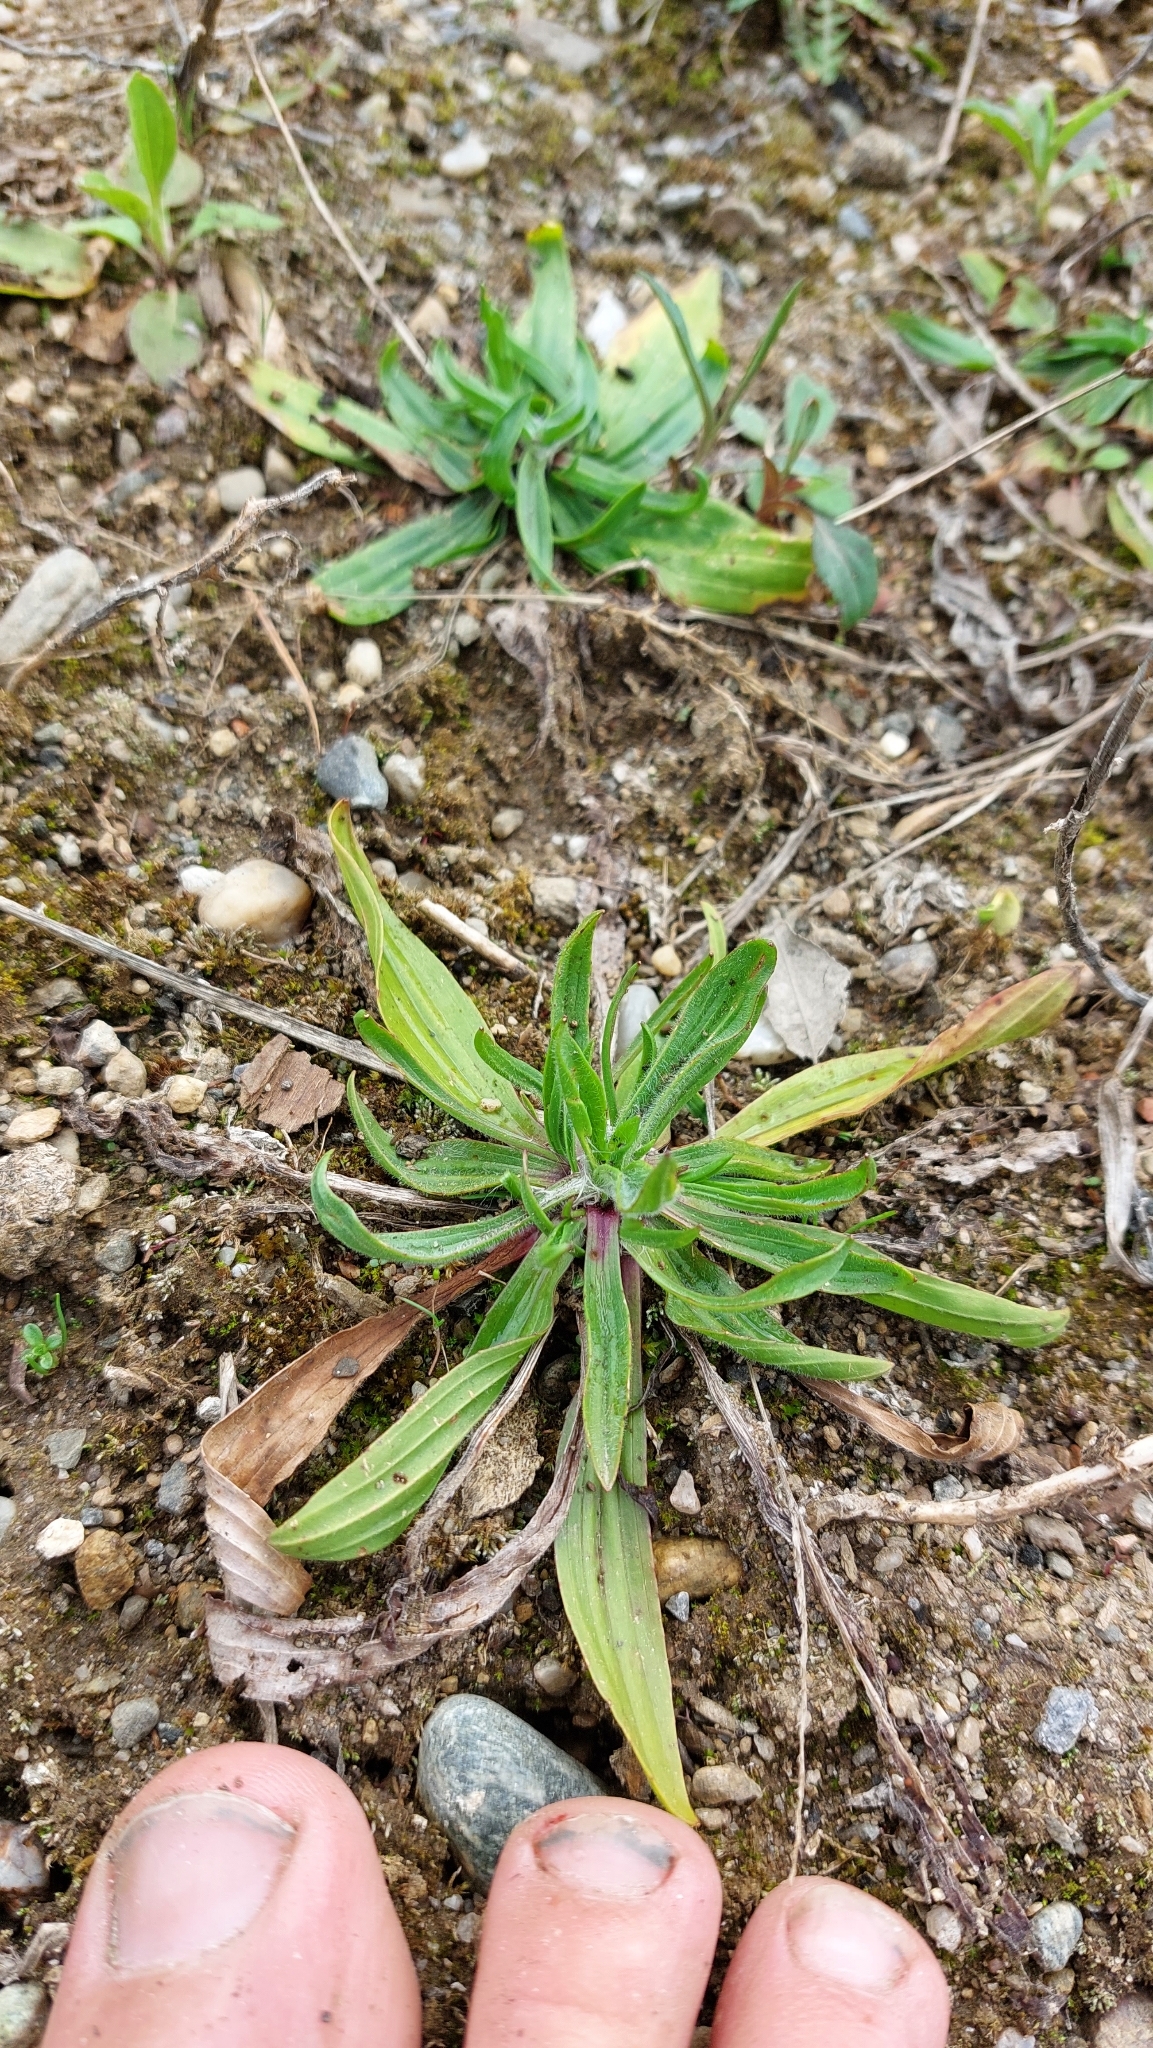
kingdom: Plantae
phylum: Tracheophyta
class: Magnoliopsida
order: Lamiales
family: Plantaginaceae
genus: Plantago
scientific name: Plantago lanceolata
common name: Ribwort plantain
